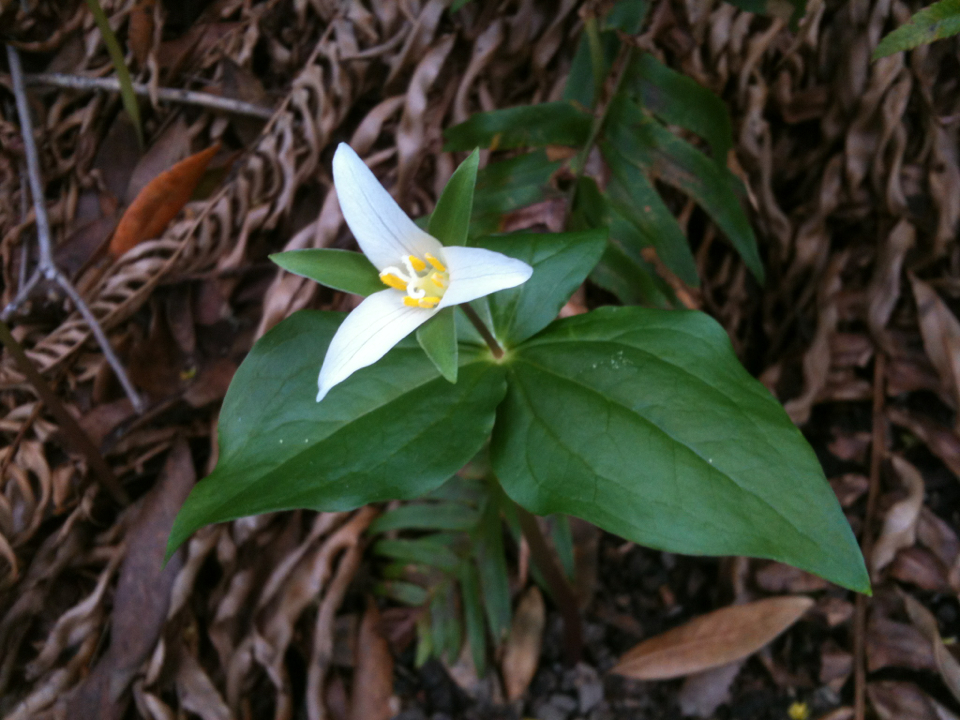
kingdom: Plantae
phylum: Tracheophyta
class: Liliopsida
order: Liliales
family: Melanthiaceae
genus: Trillium
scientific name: Trillium ovatum
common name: Pacific trillium
